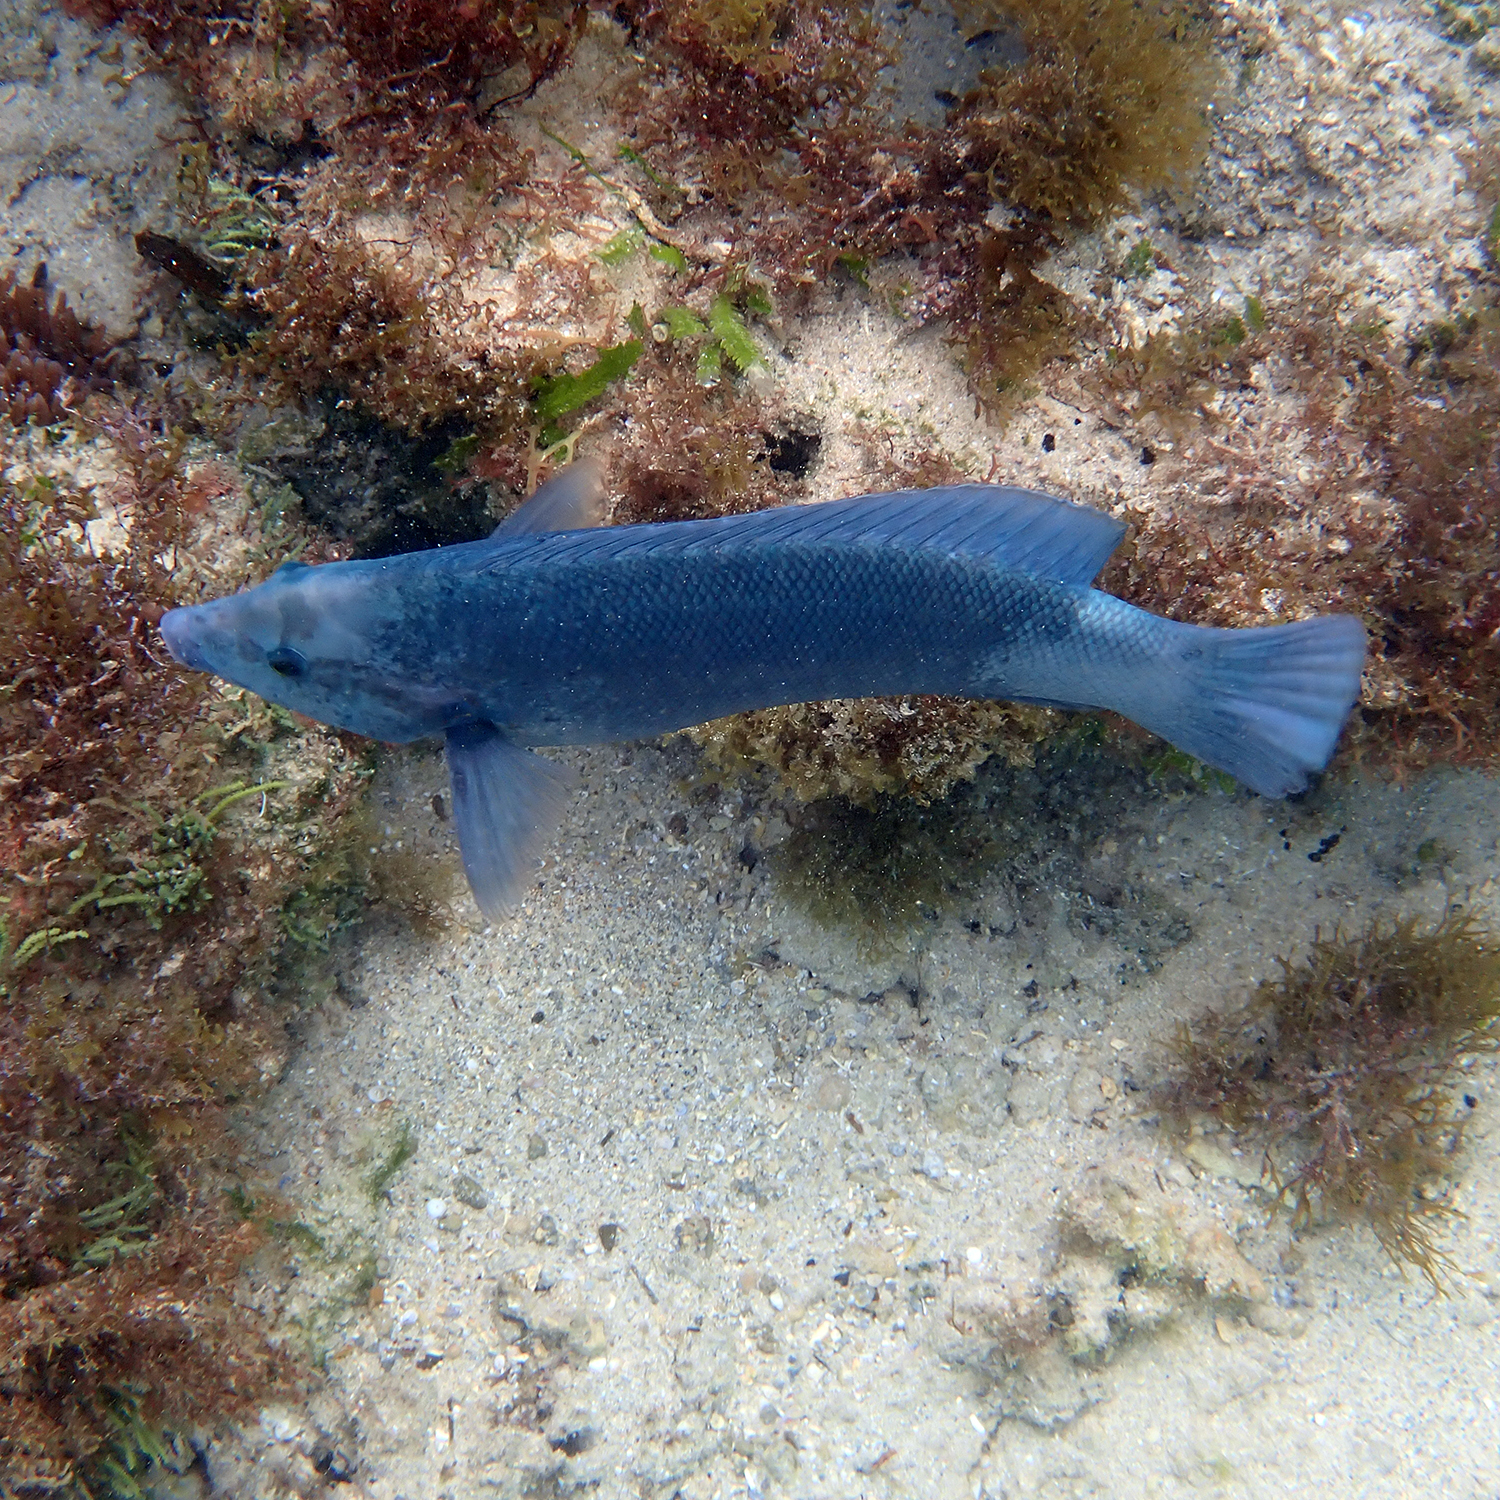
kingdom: Animalia
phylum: Chordata
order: Perciformes
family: Labridae
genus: Coris
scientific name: Coris bulbifrons
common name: Doubleheader
